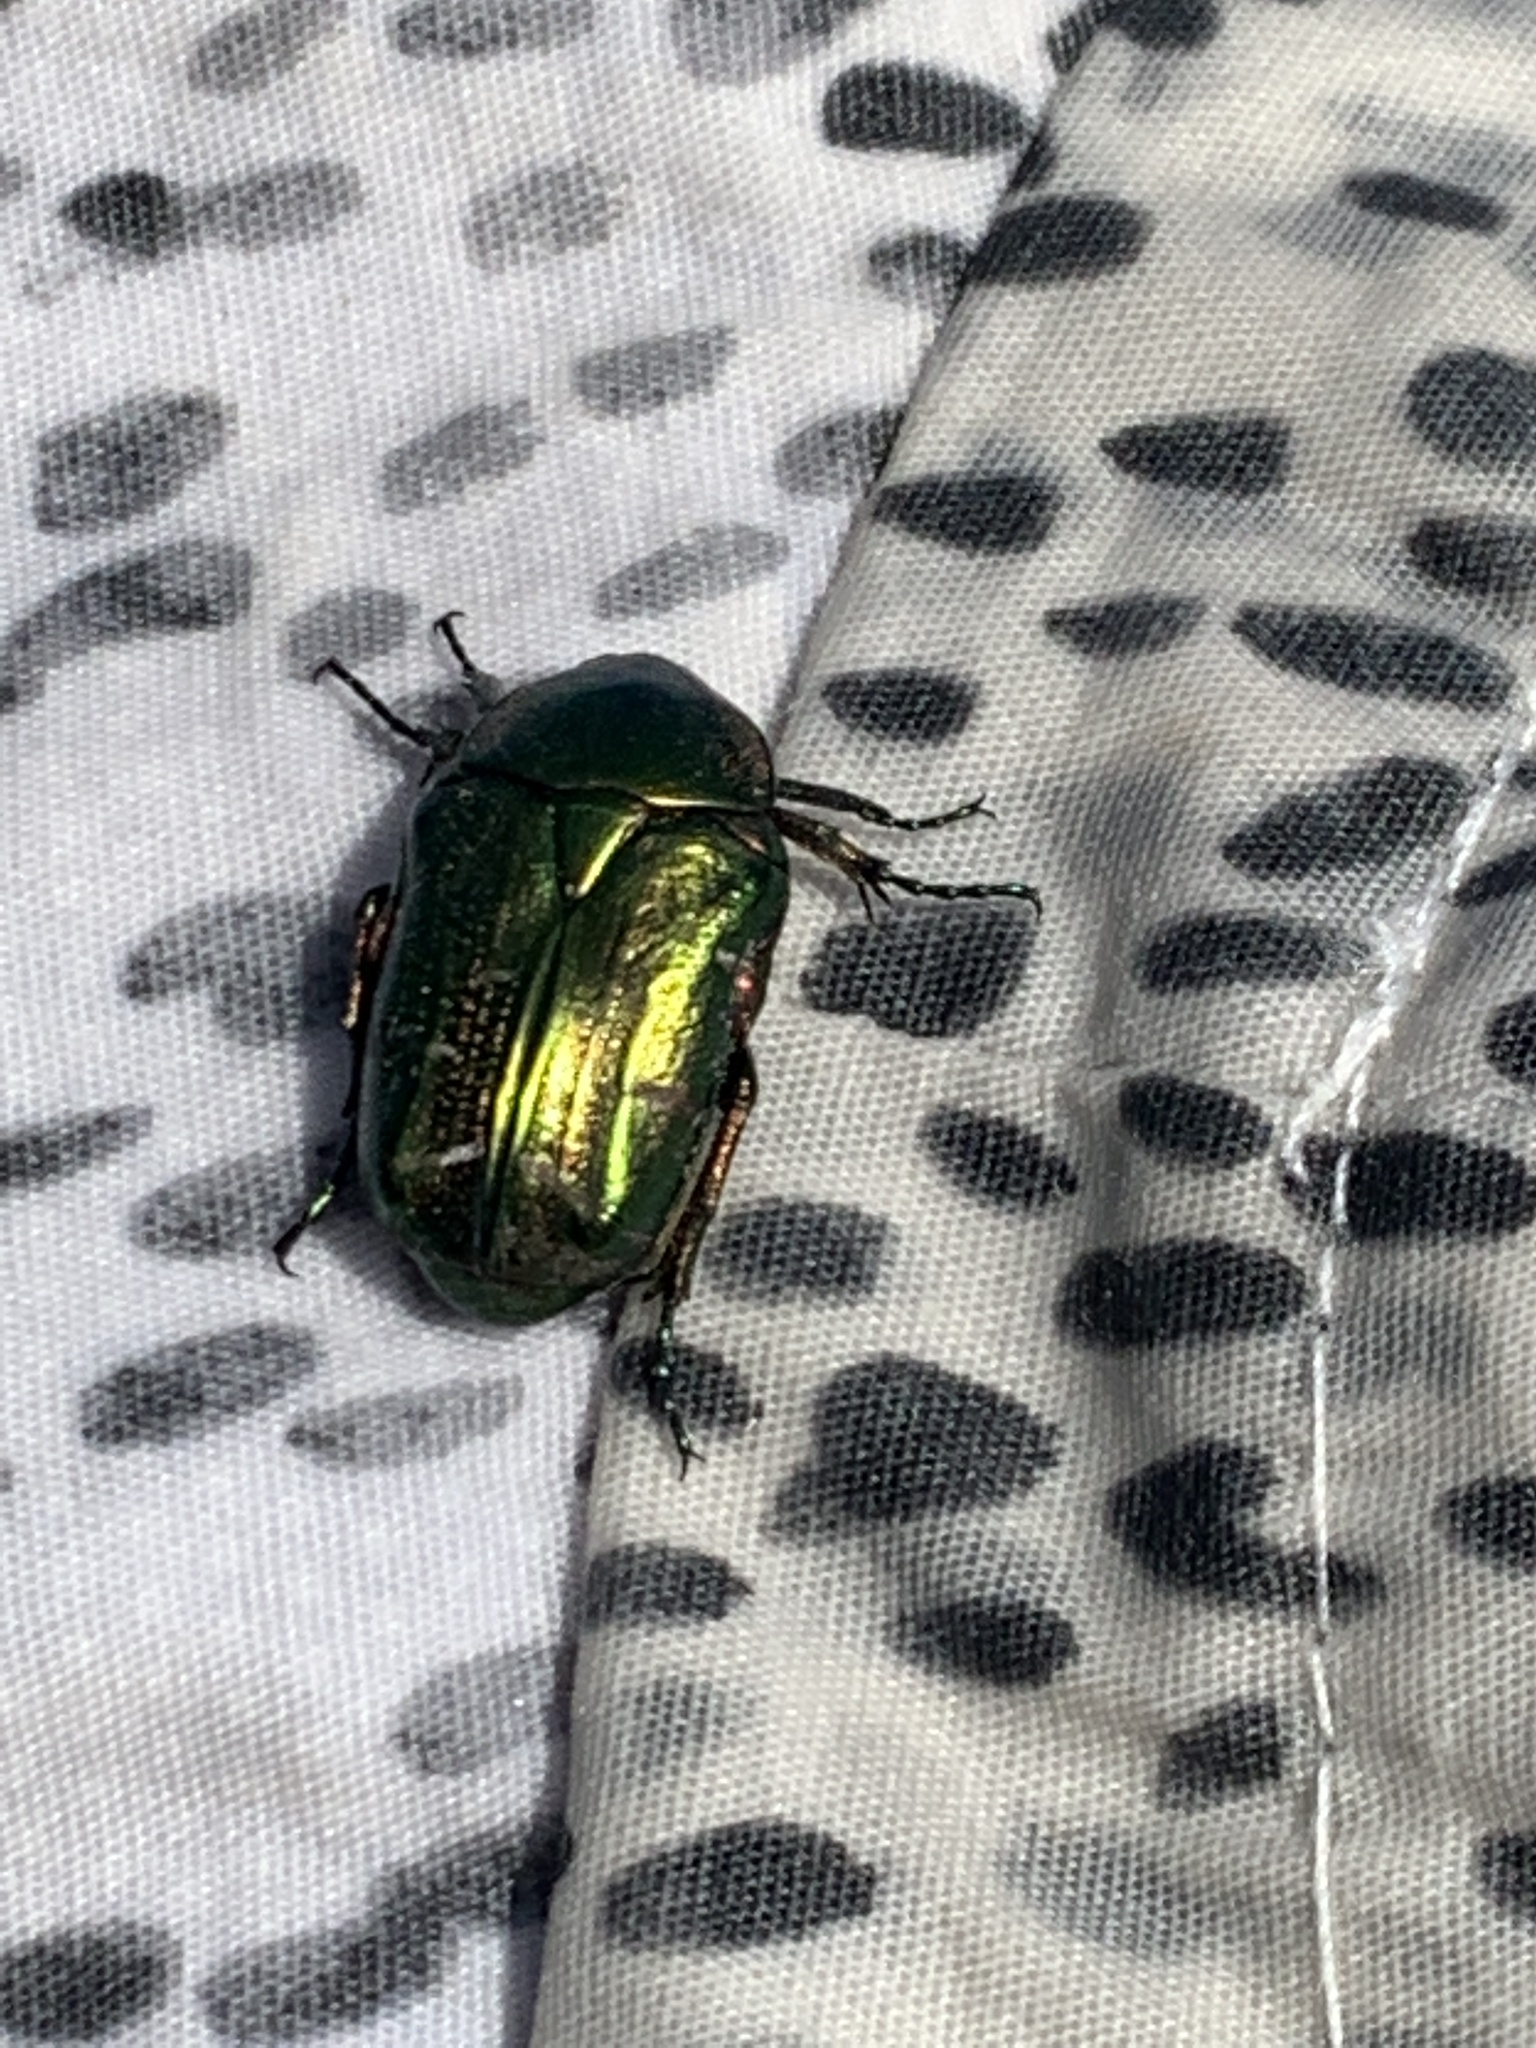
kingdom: Animalia
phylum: Arthropoda
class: Insecta
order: Coleoptera
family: Scarabaeidae
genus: Cetonia
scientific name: Cetonia aurata
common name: Rose chafer
